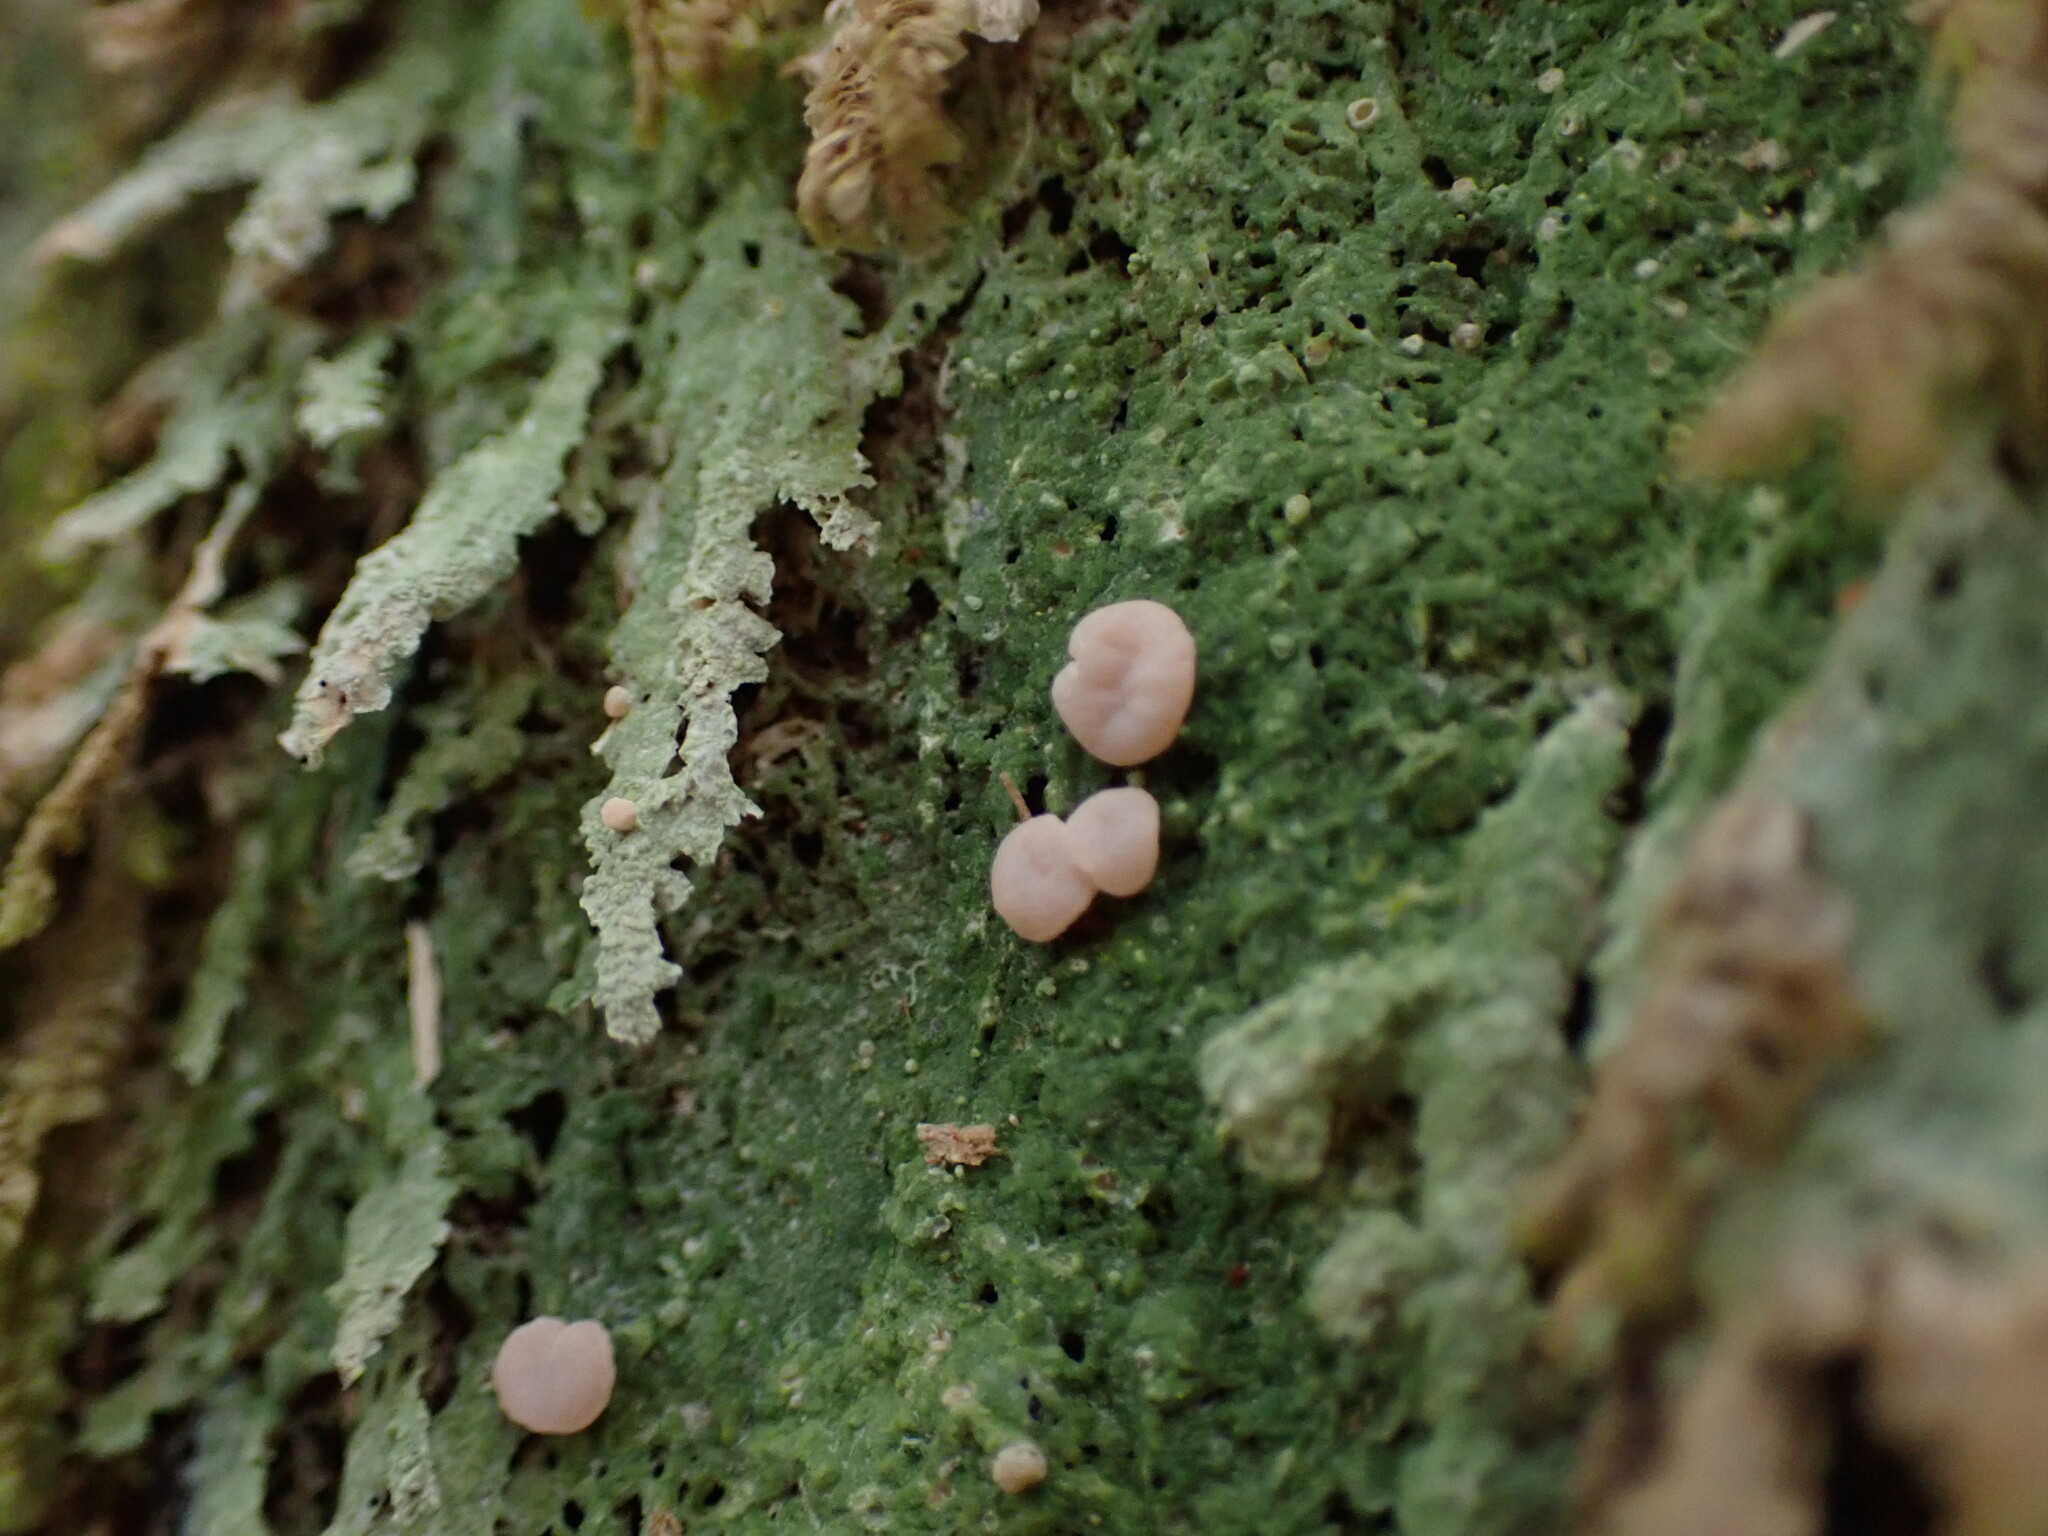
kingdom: Fungi
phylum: Ascomycota
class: Lecanoromycetes
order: Pertusariales
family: Icmadophilaceae
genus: Icmadophila
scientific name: Icmadophila ericetorum
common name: Candy lichen
